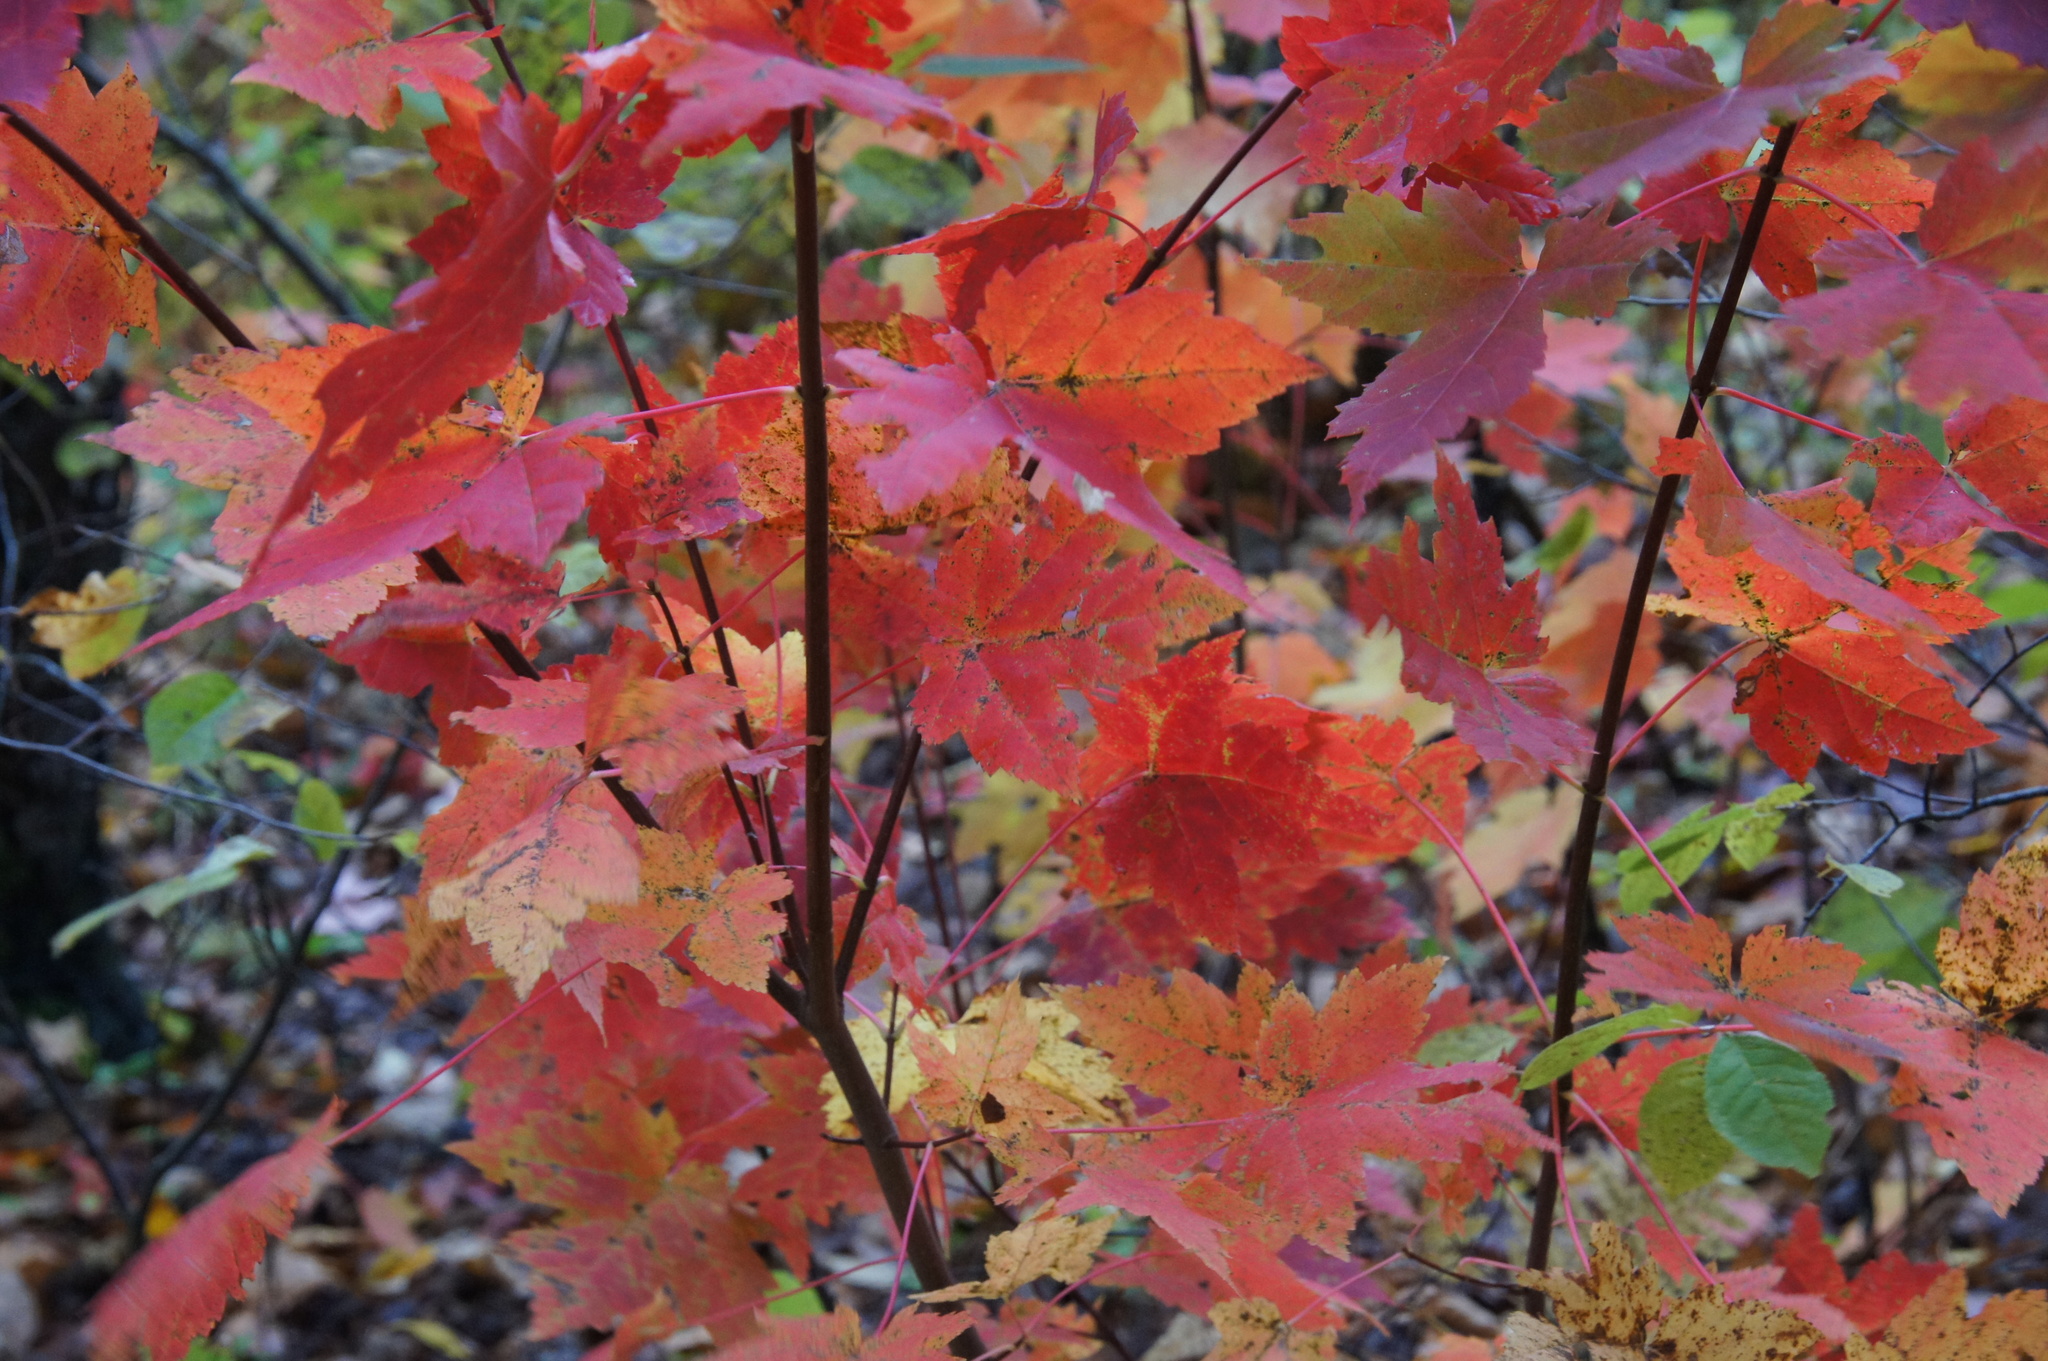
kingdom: Plantae
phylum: Tracheophyta
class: Magnoliopsida
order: Sapindales
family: Sapindaceae
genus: Acer
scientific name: Acer rubrum
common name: Red maple
